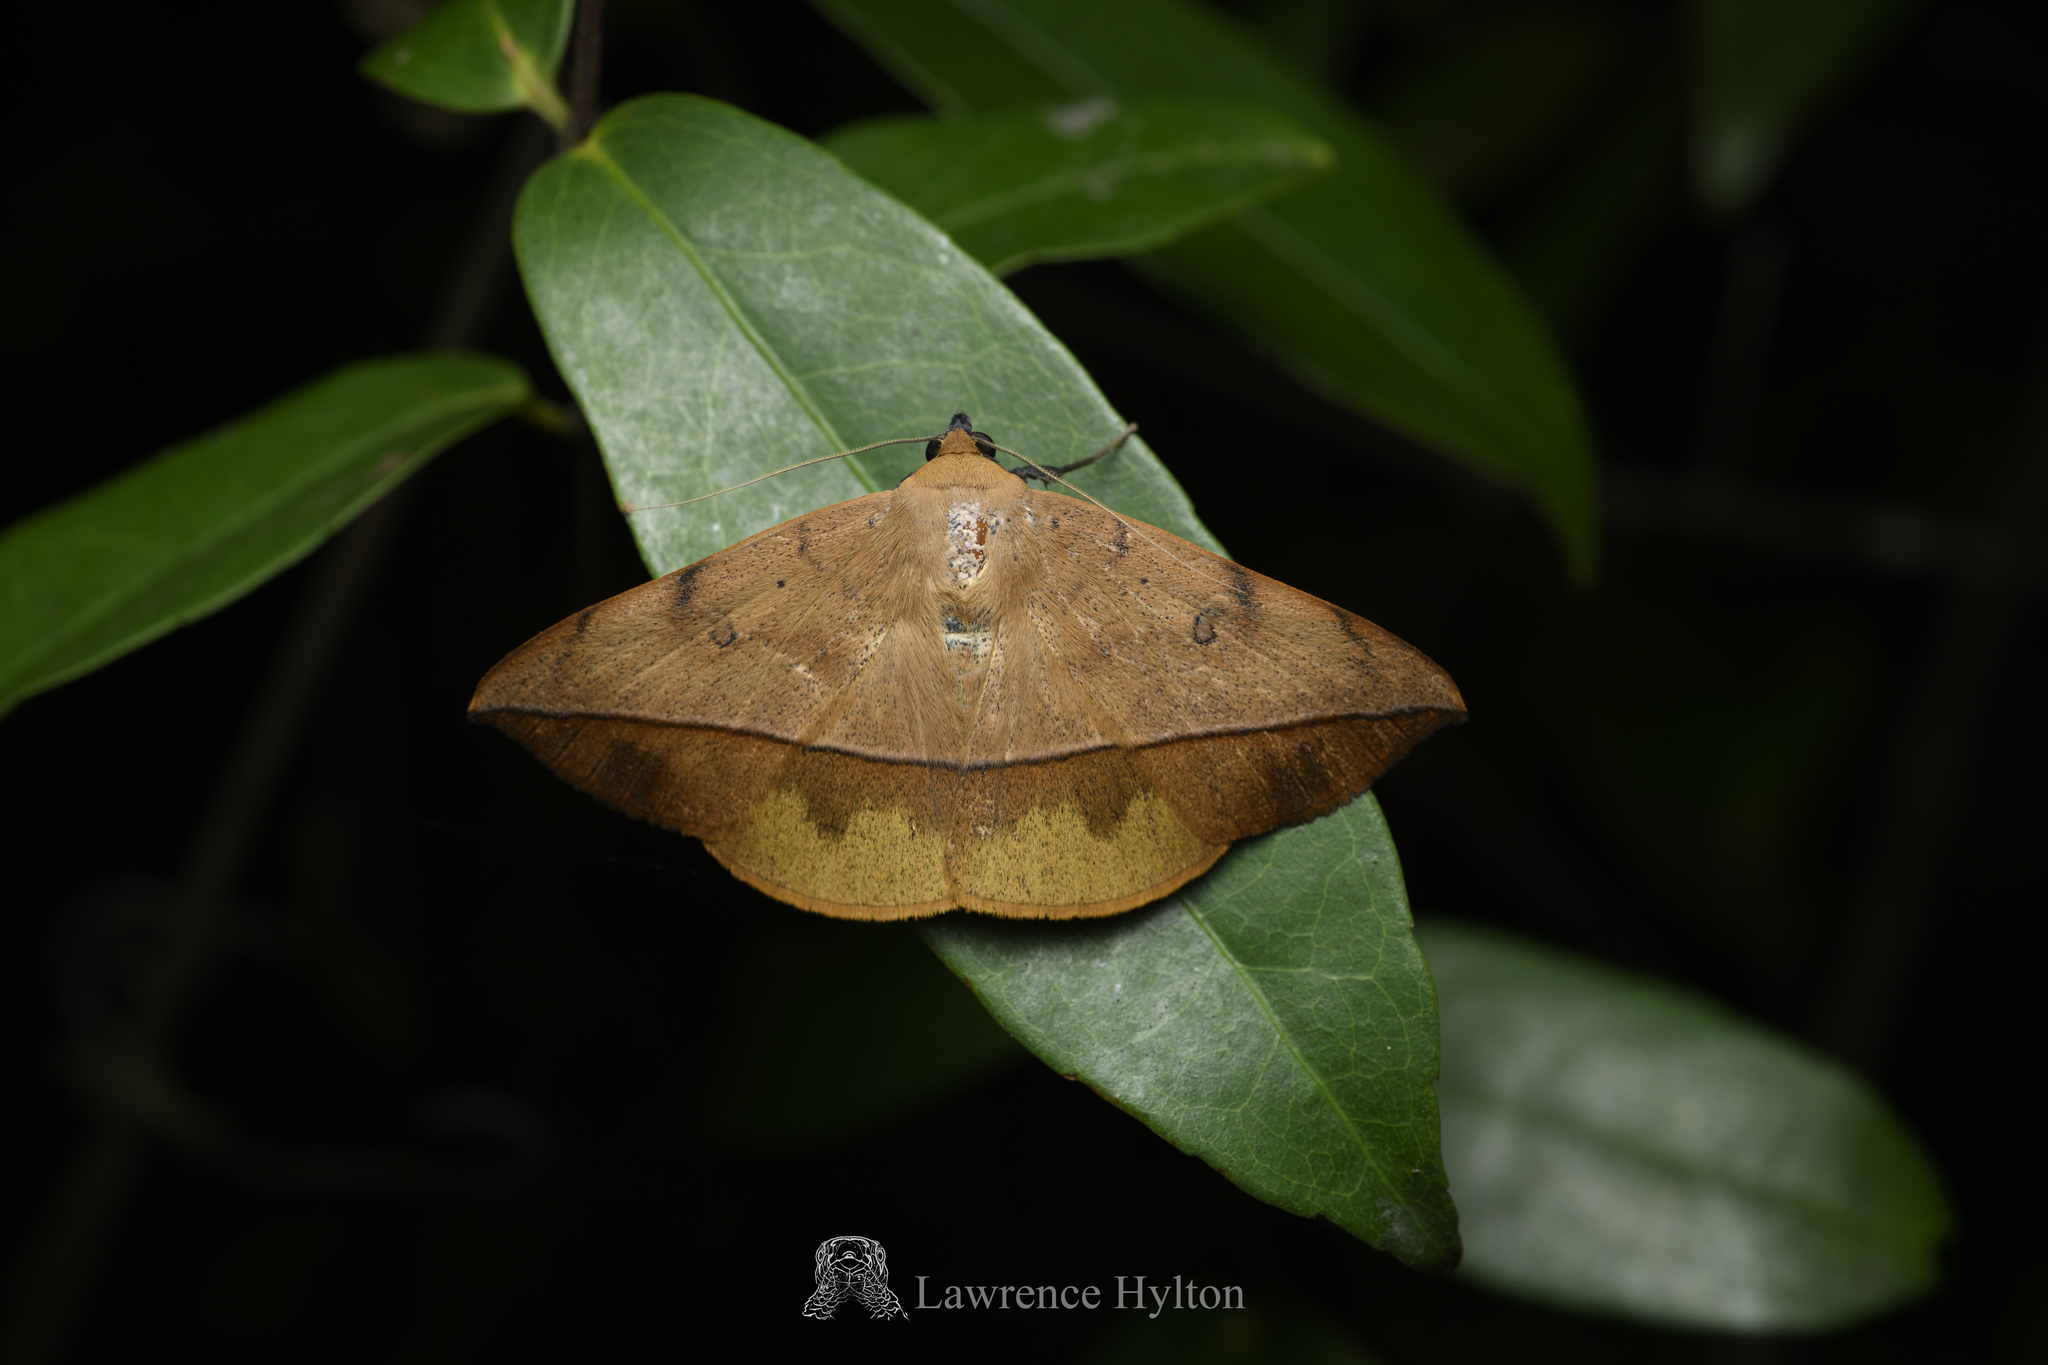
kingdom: Animalia
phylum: Arthropoda
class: Insecta
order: Lepidoptera
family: Erebidae
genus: Hamodes
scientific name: Hamodes propitia
